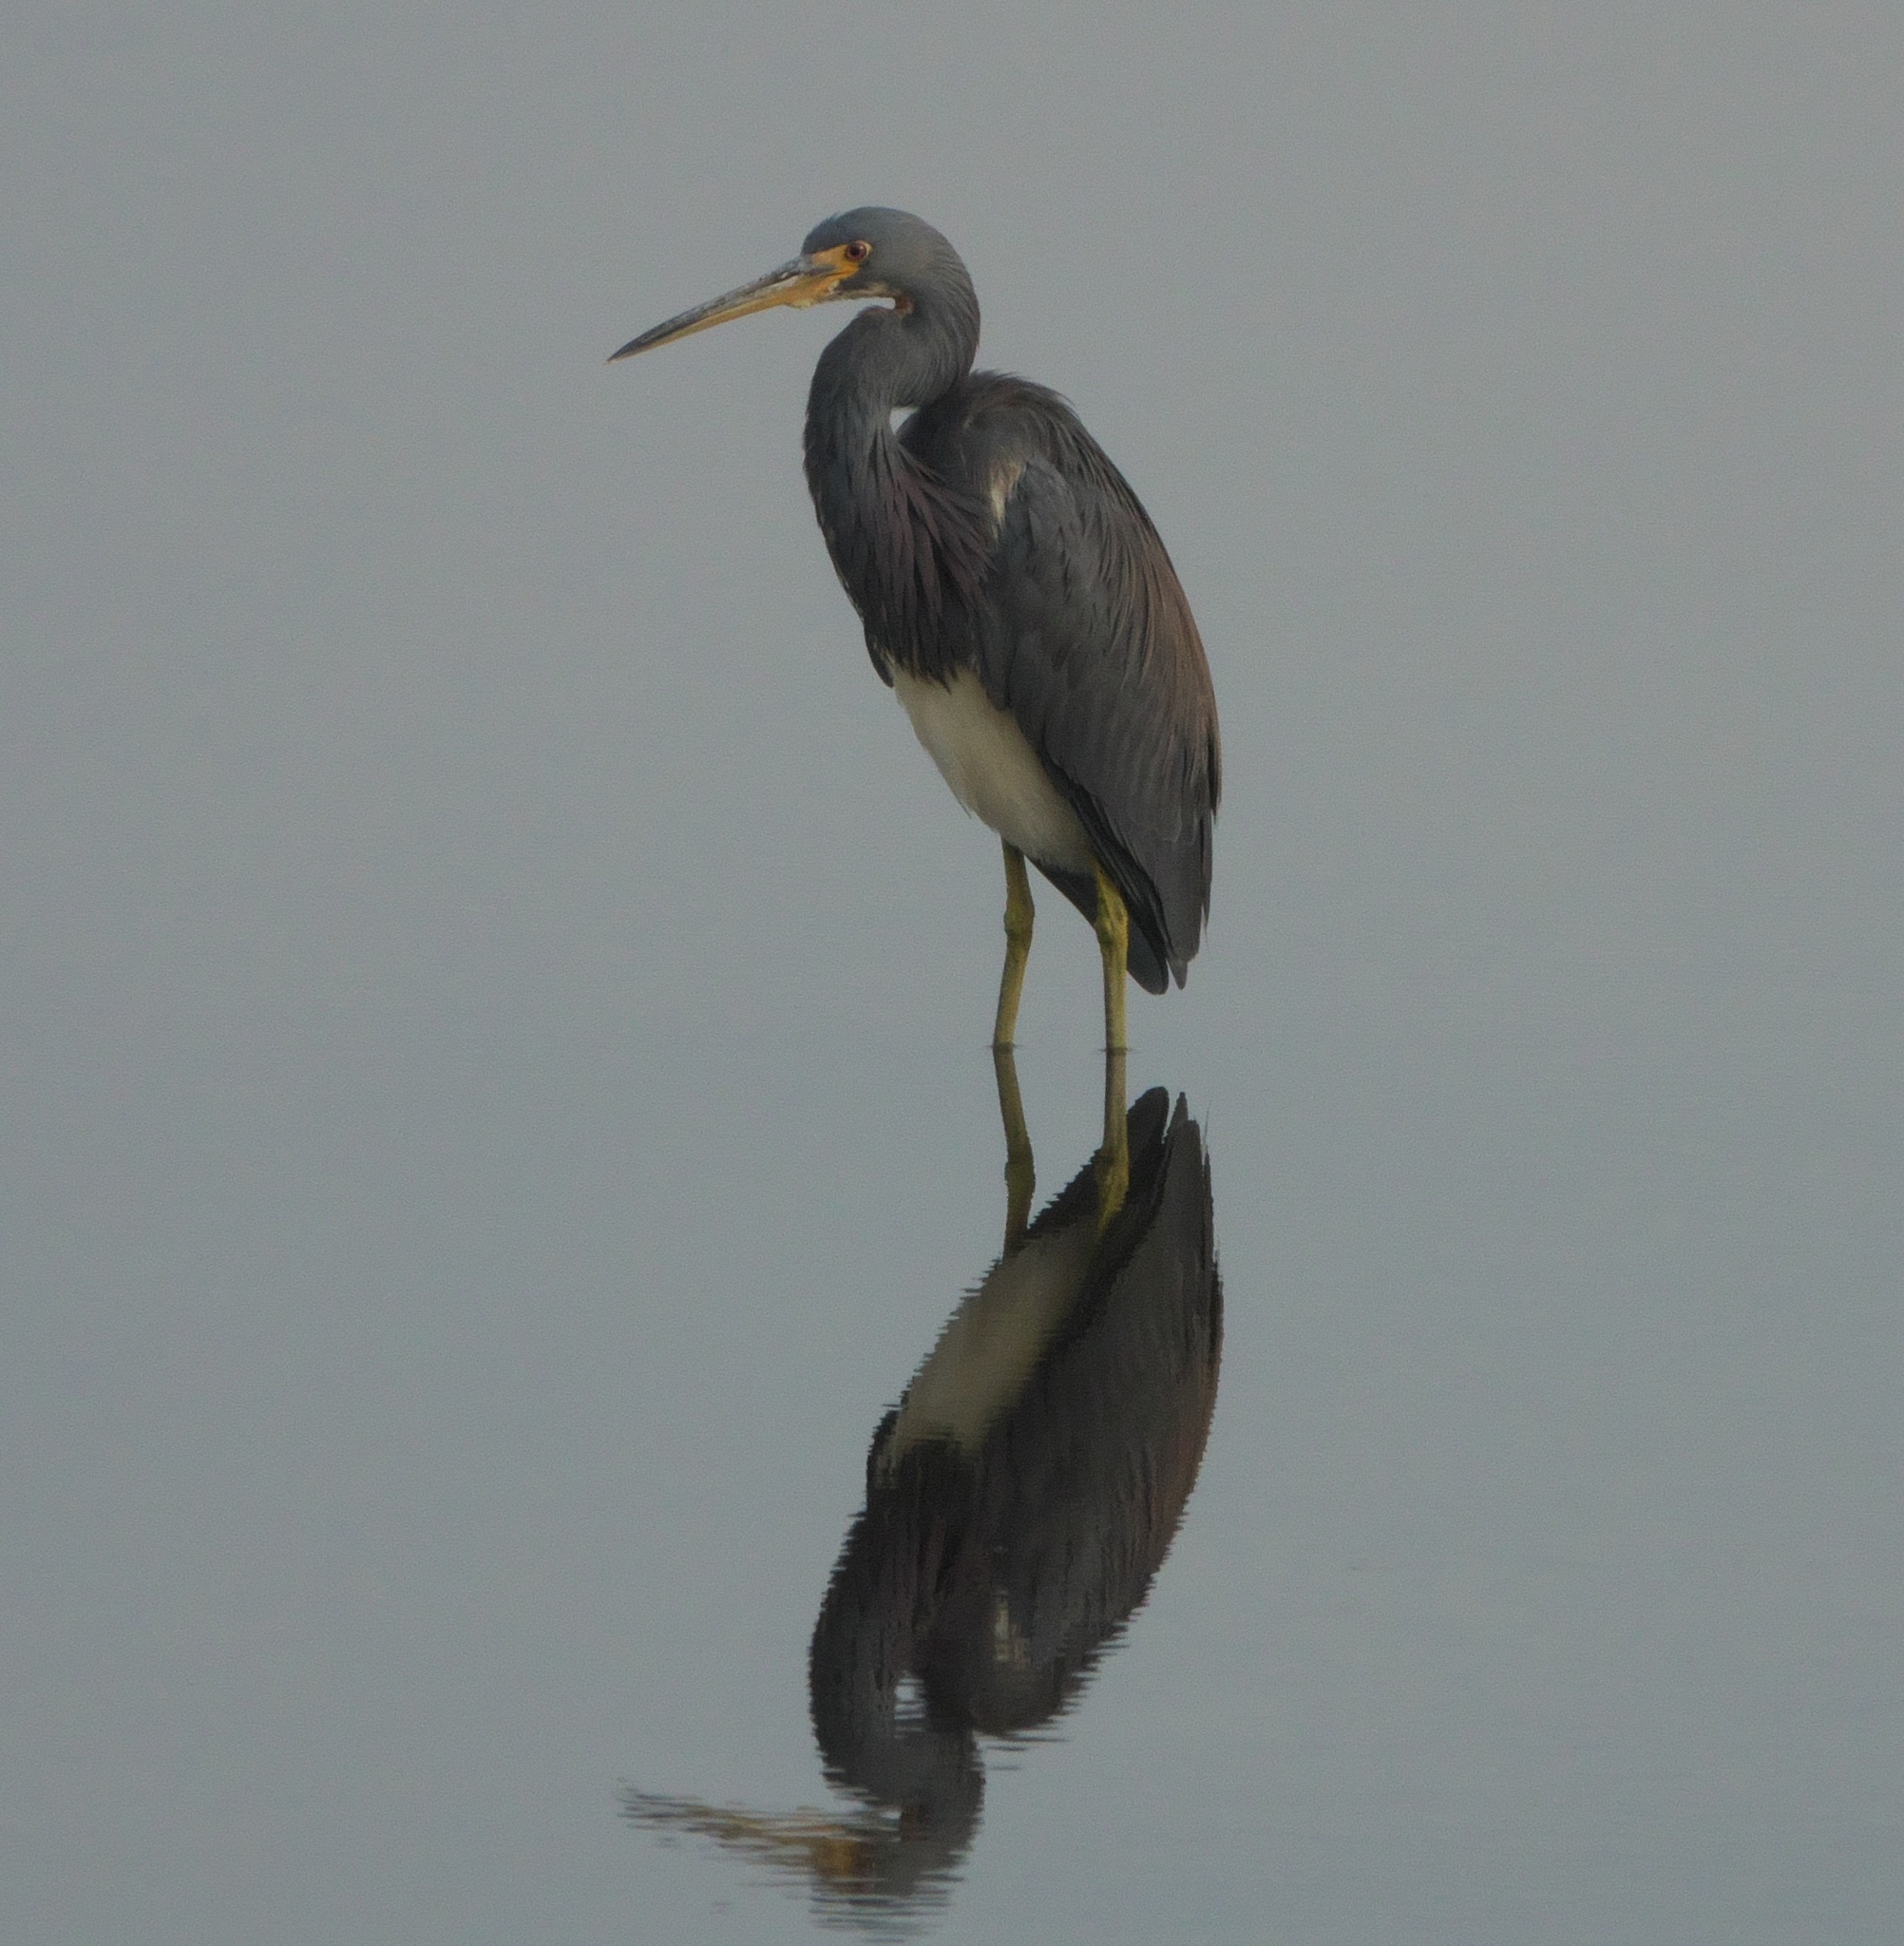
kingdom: Animalia
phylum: Chordata
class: Aves
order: Pelecaniformes
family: Ardeidae
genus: Egretta
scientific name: Egretta tricolor
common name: Tricolored heron
